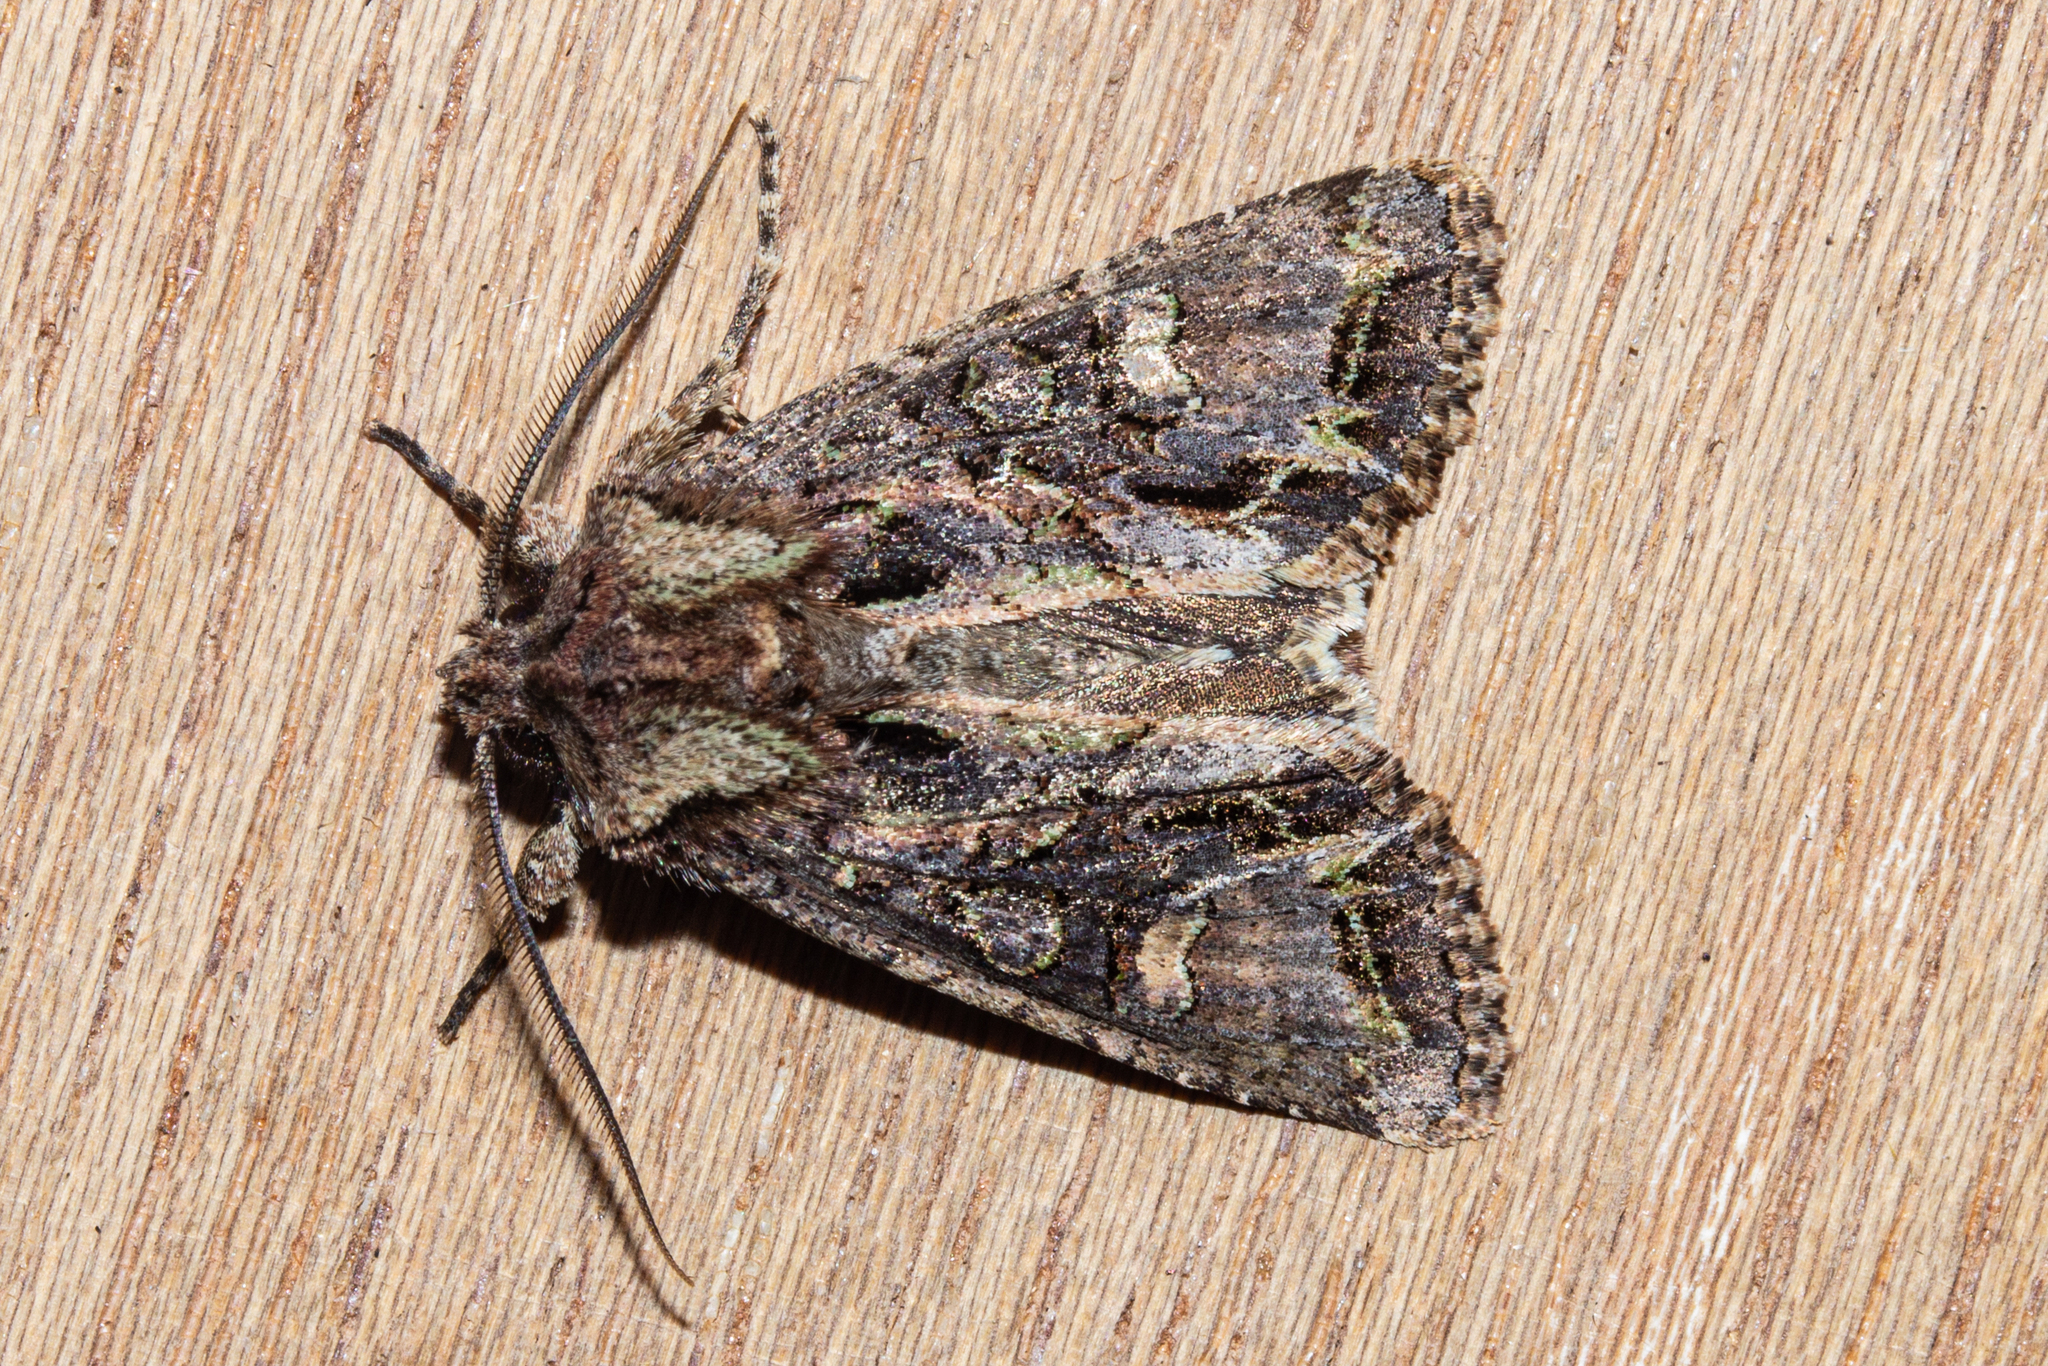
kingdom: Animalia
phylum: Arthropoda
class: Insecta
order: Lepidoptera
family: Noctuidae
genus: Ichneutica
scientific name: Ichneutica skelloni
